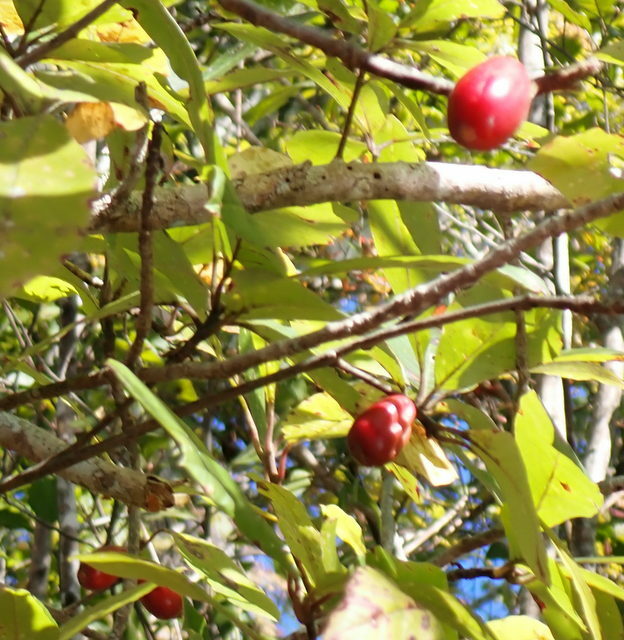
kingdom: Plantae
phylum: Tracheophyta
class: Magnoliopsida
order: Cornales
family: Nyssaceae
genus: Nyssa
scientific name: Nyssa ogeche
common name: Ogeechee tupelo
